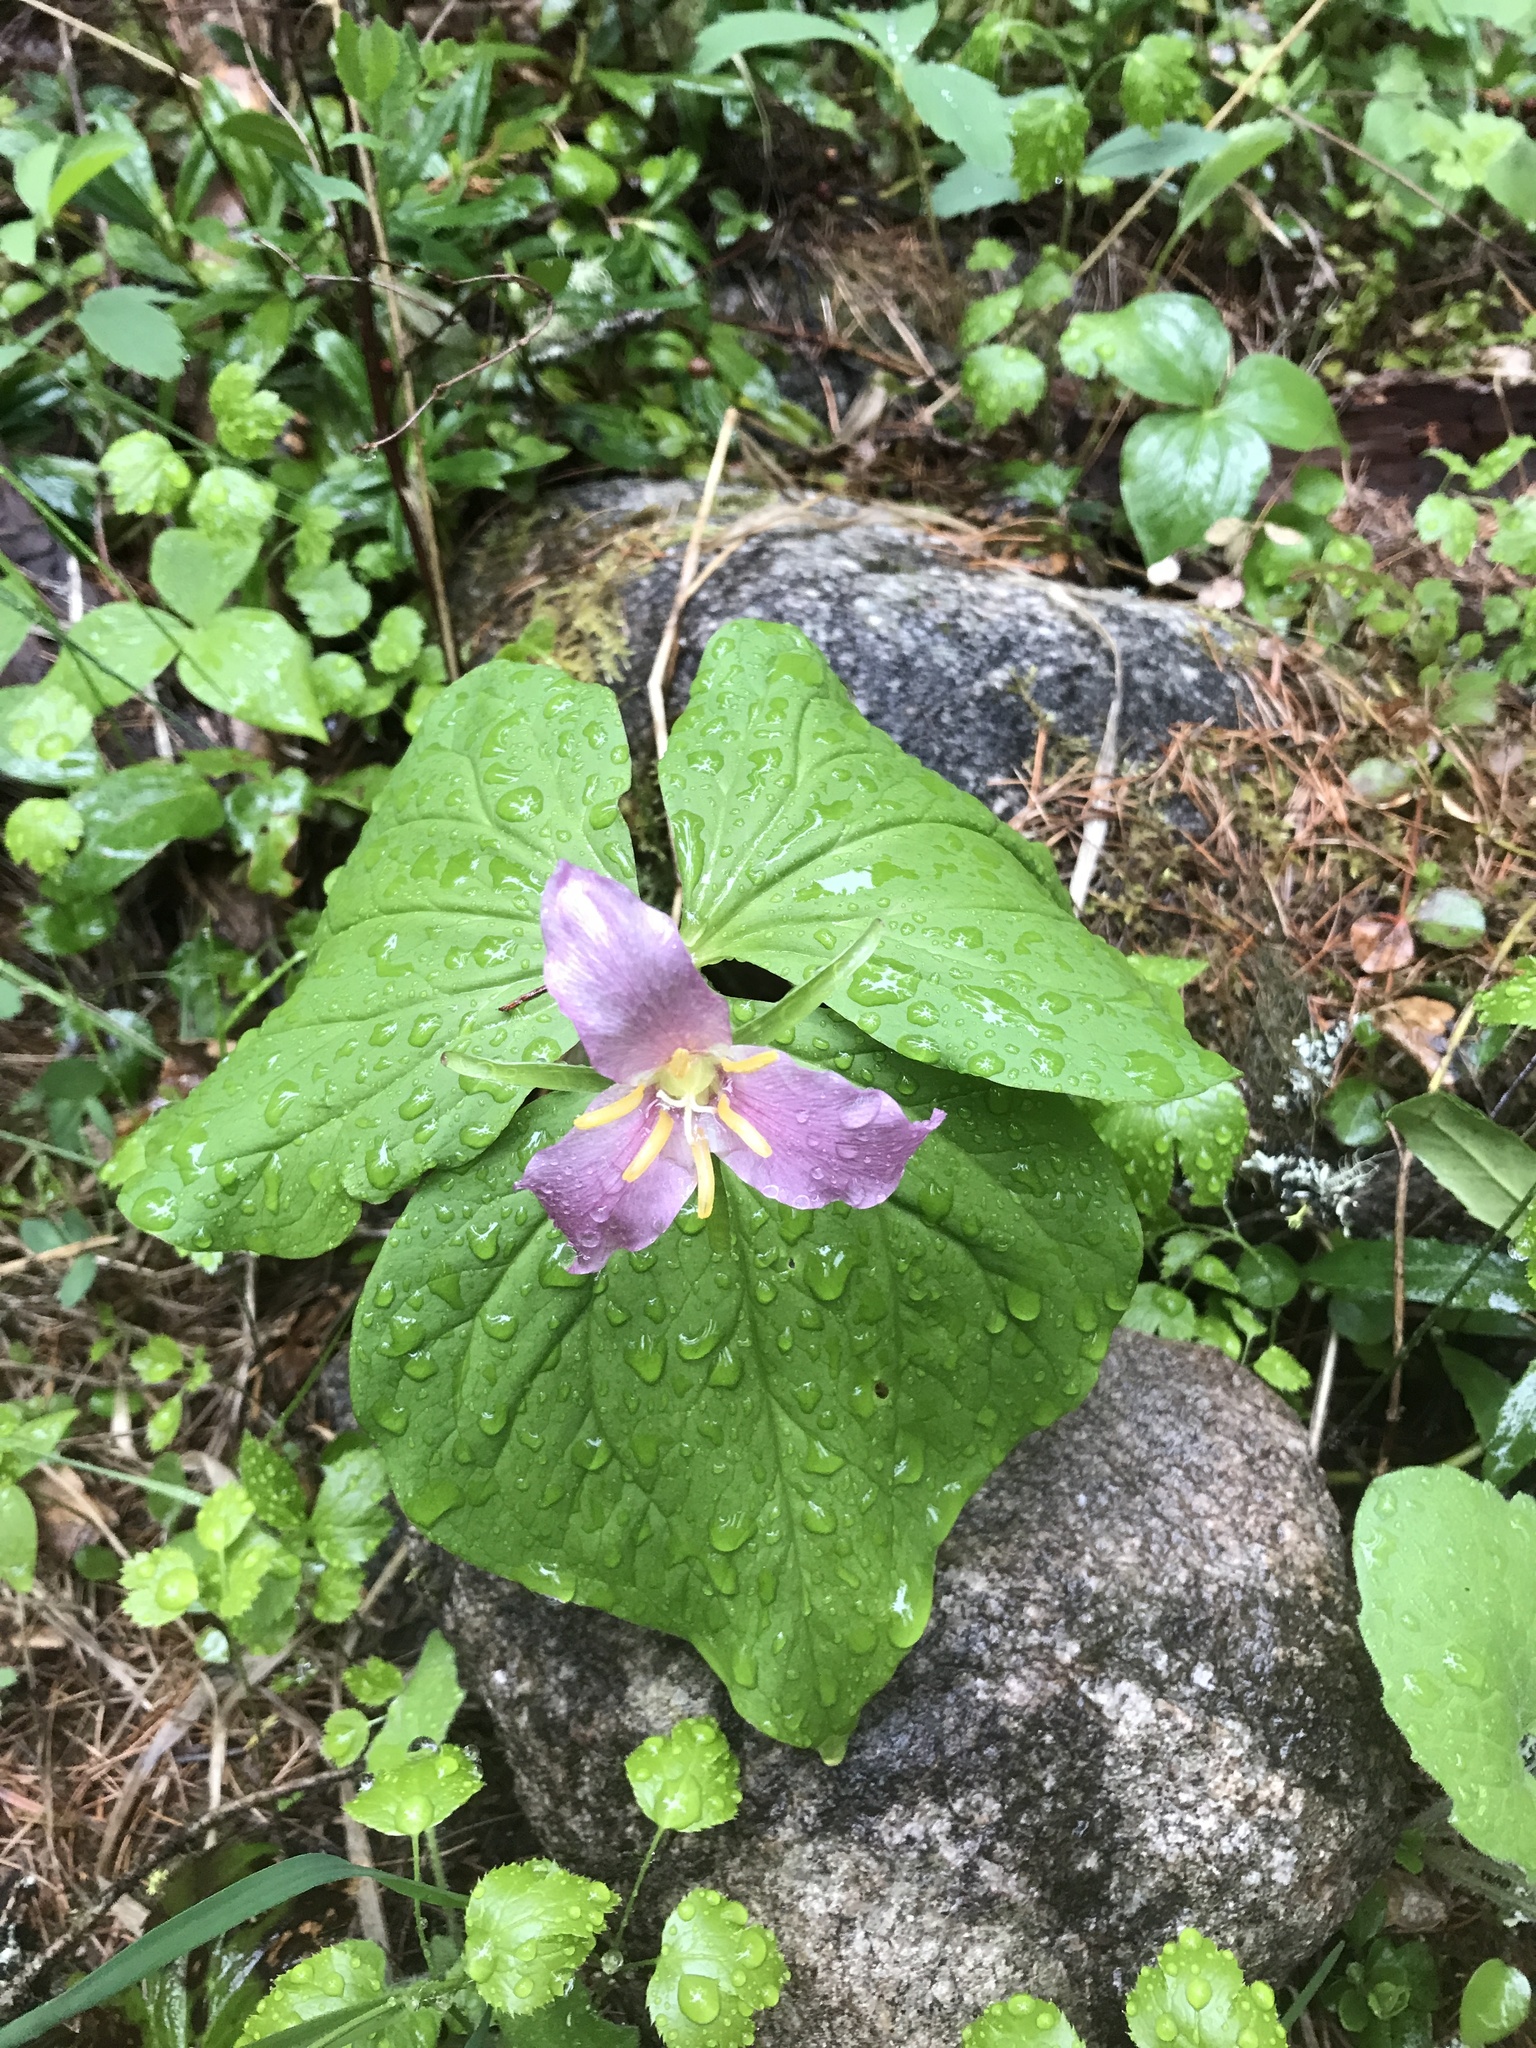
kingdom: Plantae
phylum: Tracheophyta
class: Liliopsida
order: Liliales
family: Melanthiaceae
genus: Trillium
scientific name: Trillium ovatum
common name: Pacific trillium
